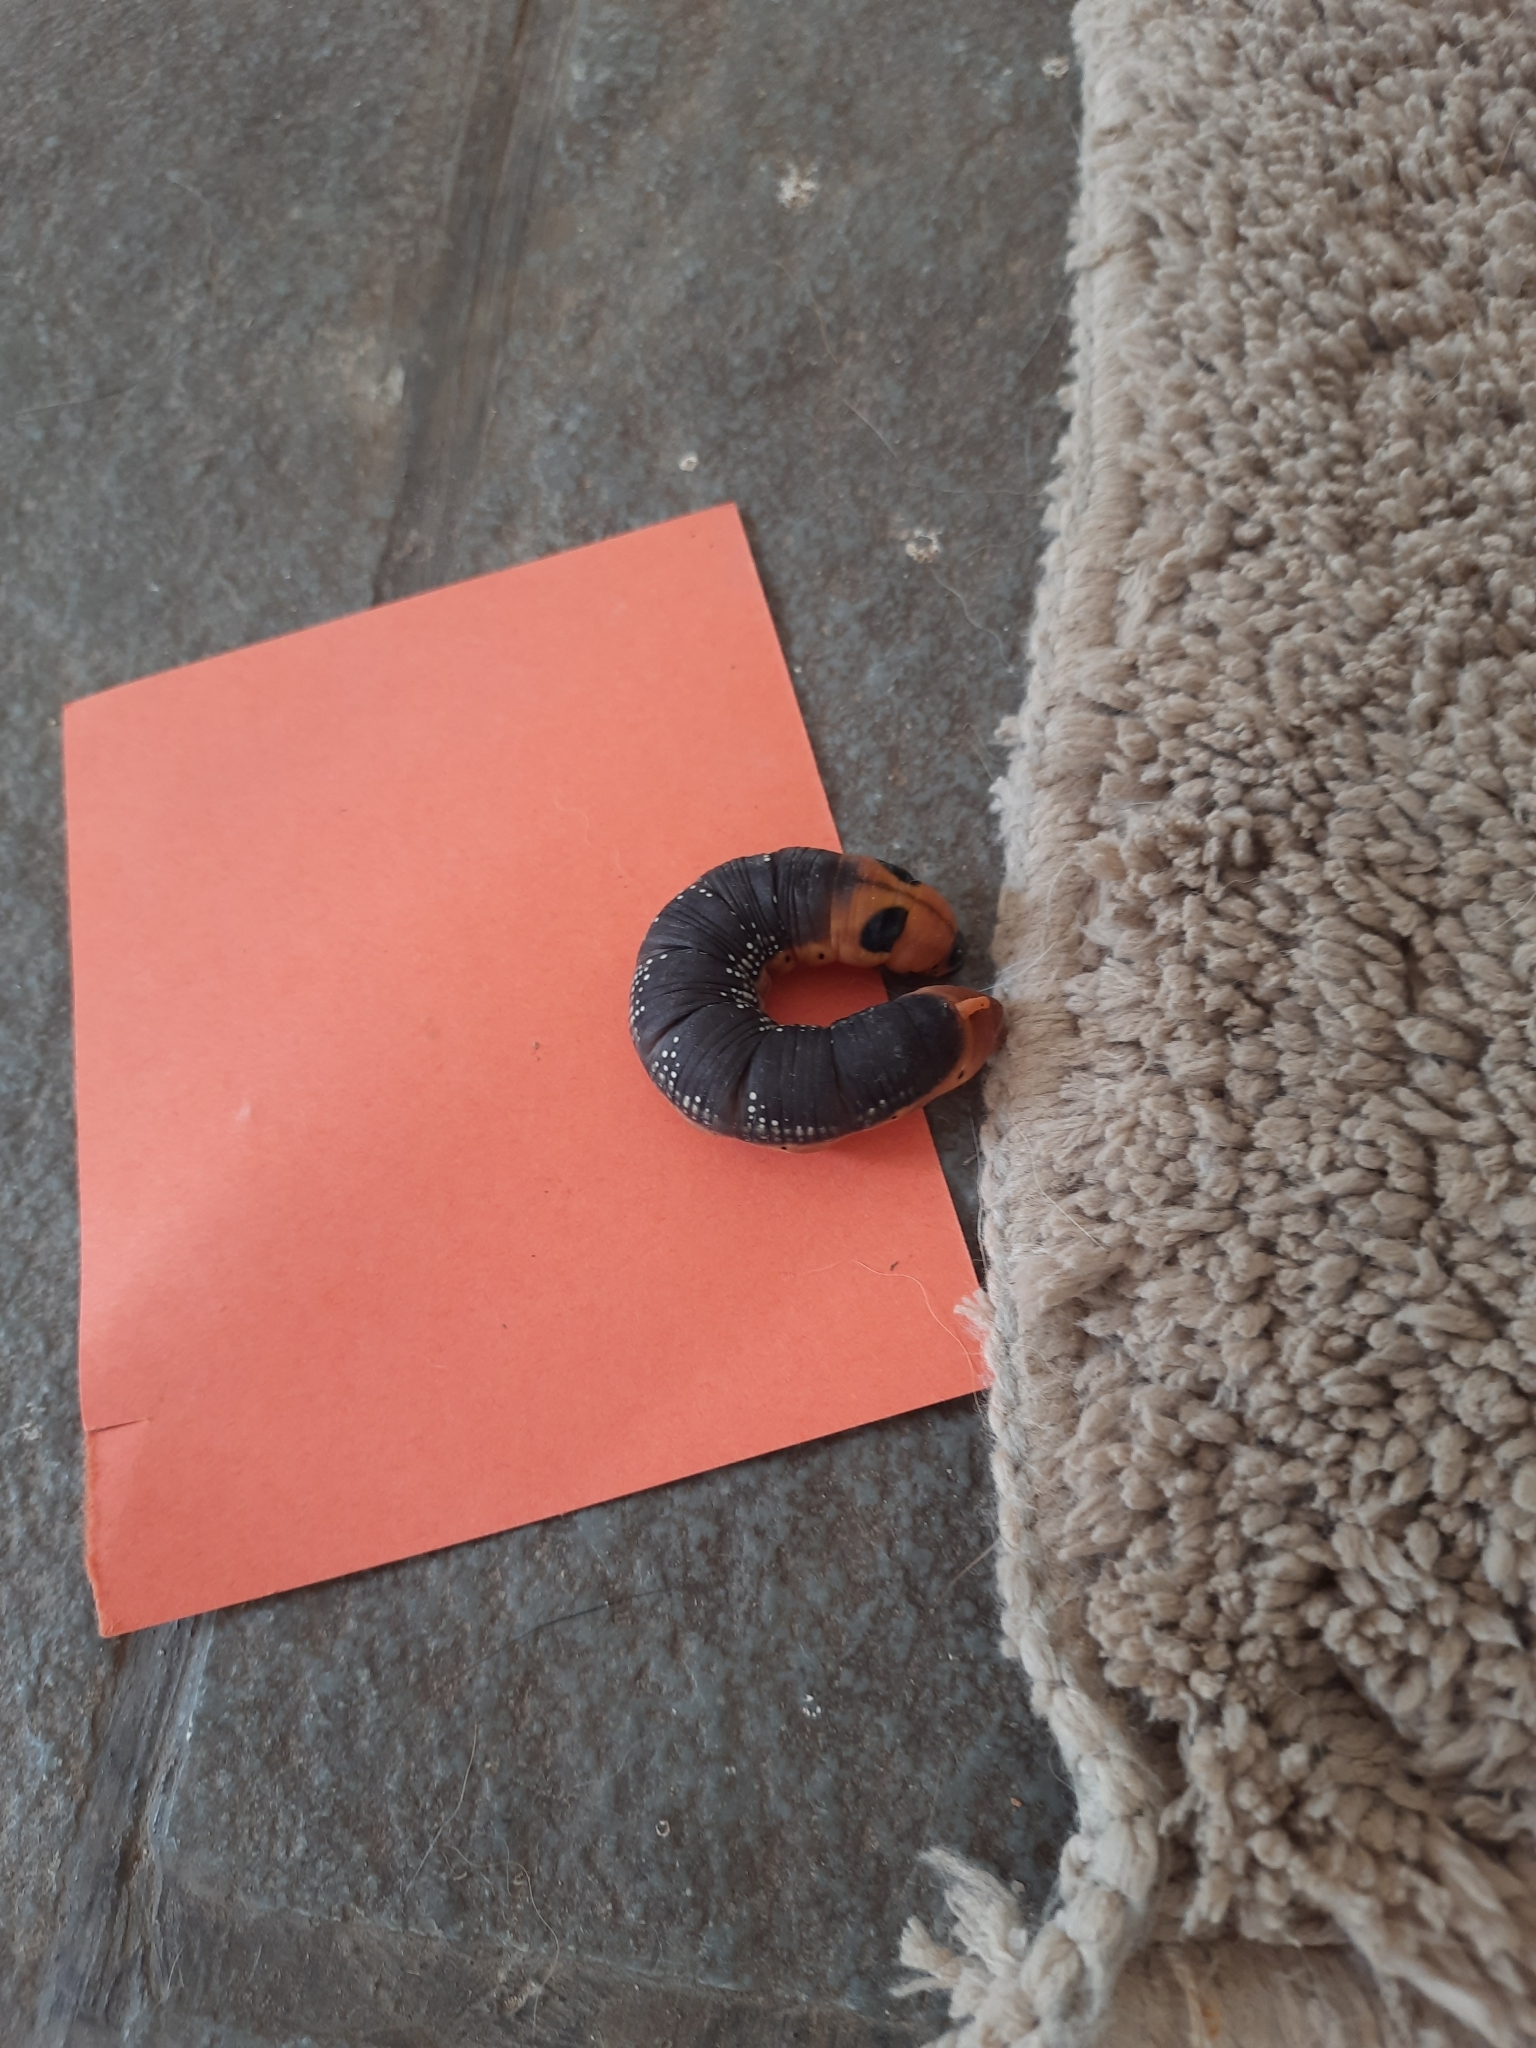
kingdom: Animalia
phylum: Arthropoda
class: Insecta
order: Lepidoptera
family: Sphingidae
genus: Daphnis
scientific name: Daphnis nerii
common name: Oleander hawk-moth
